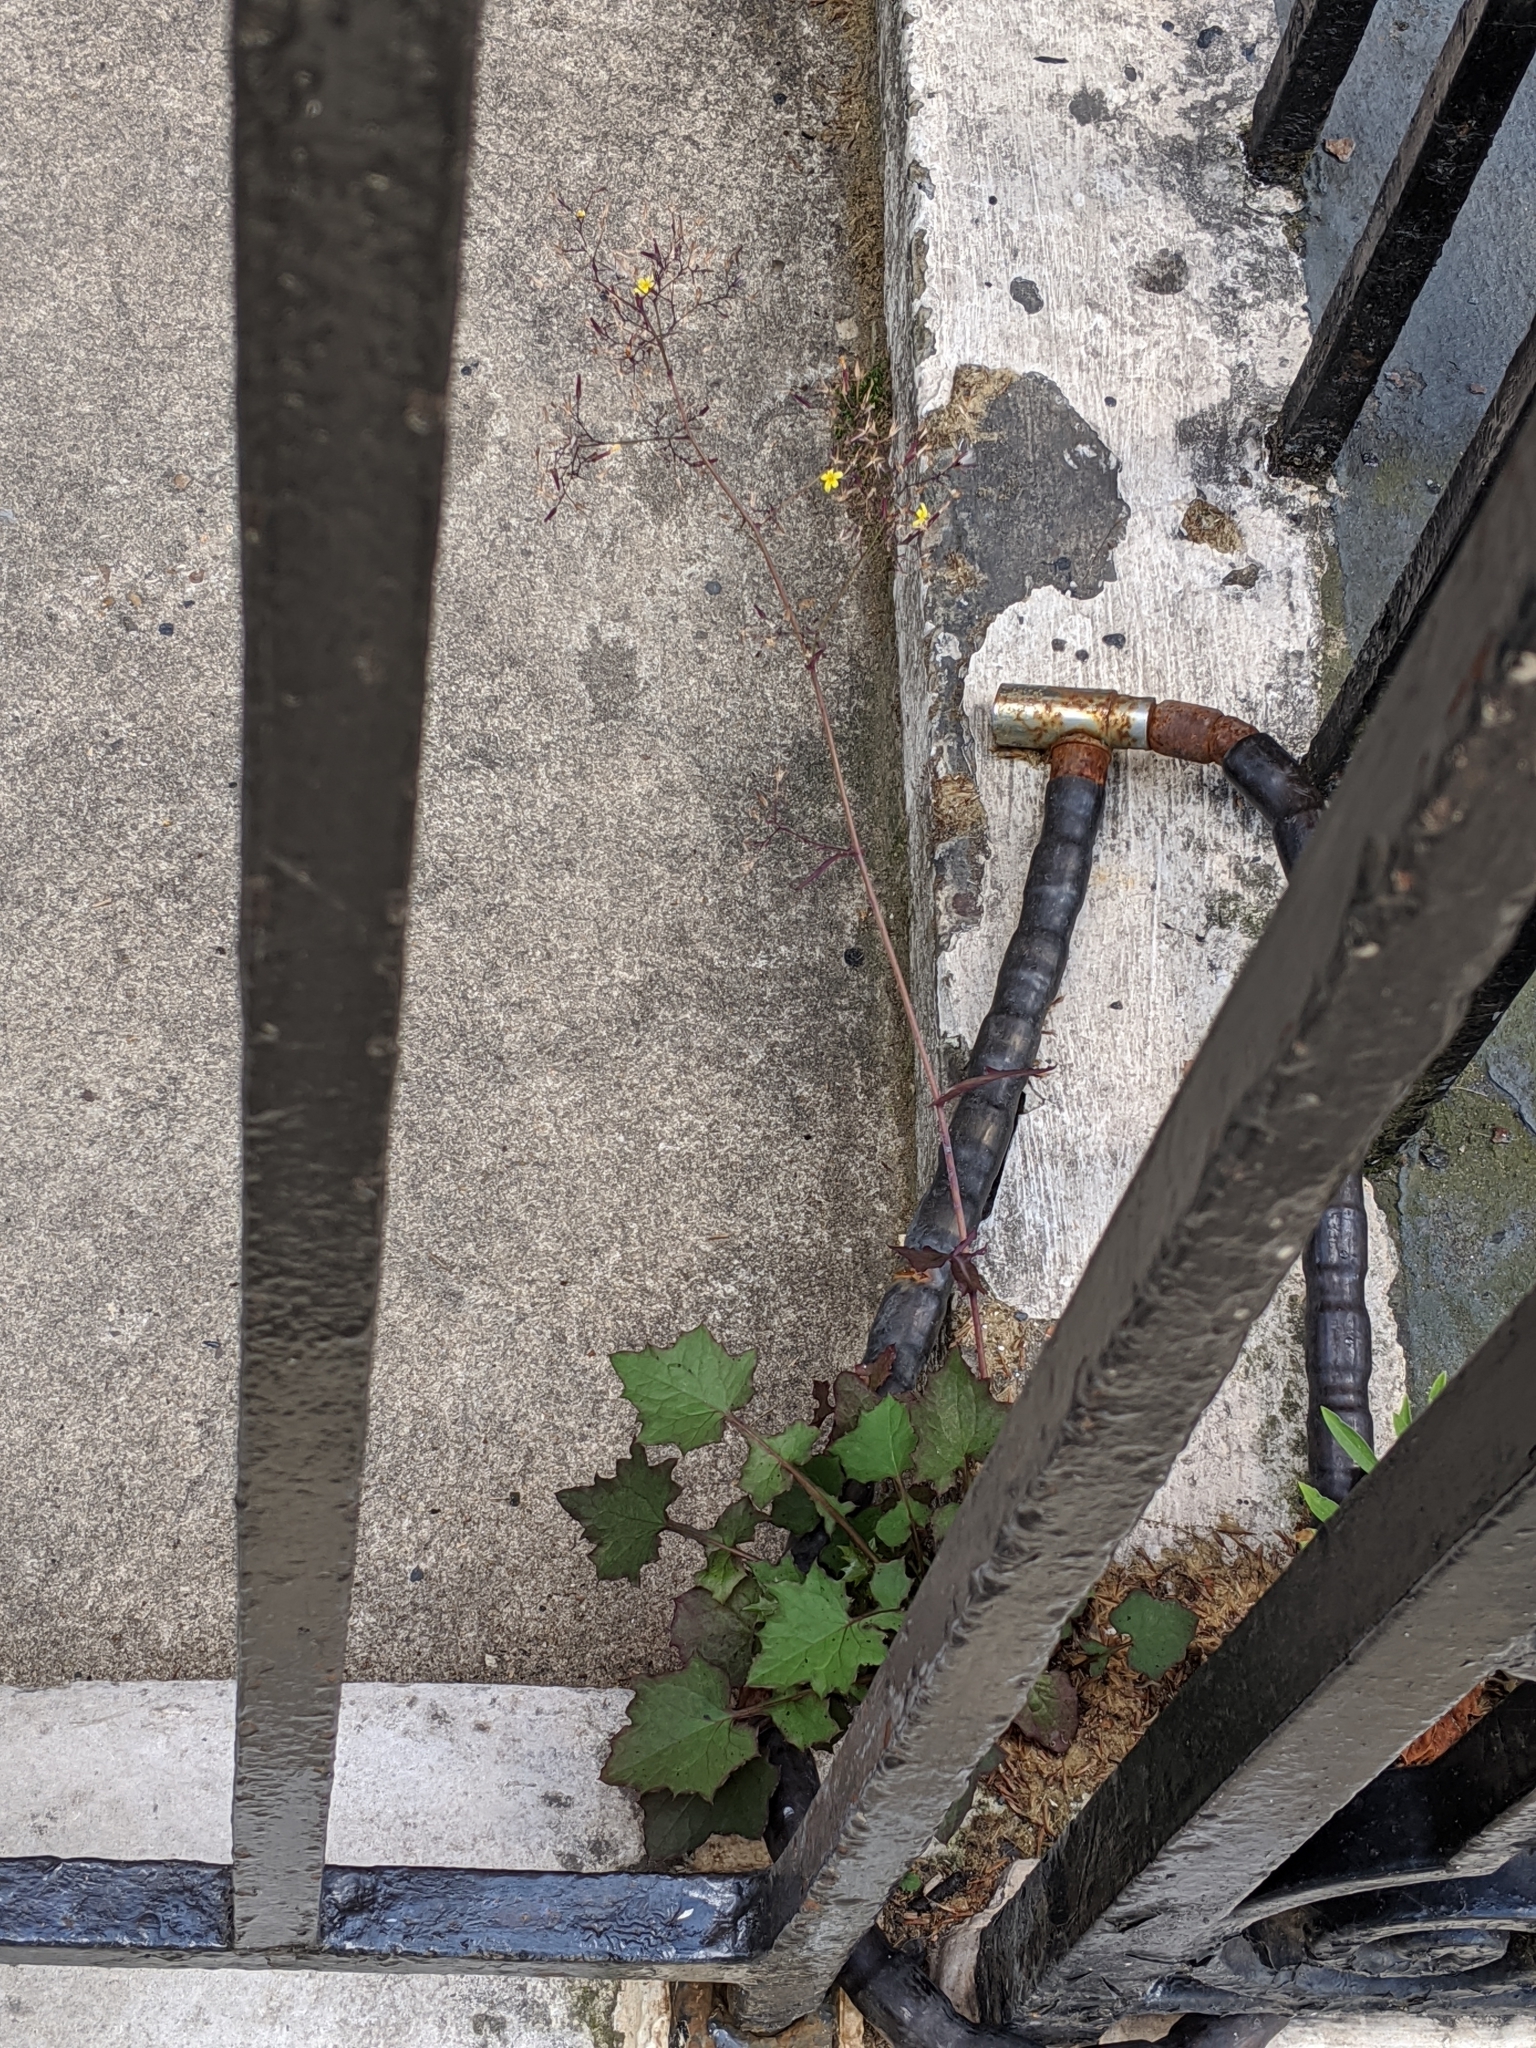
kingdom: Plantae
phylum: Tracheophyta
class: Magnoliopsida
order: Asterales
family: Asteraceae
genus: Mycelis
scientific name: Mycelis muralis
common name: Wall lettuce
